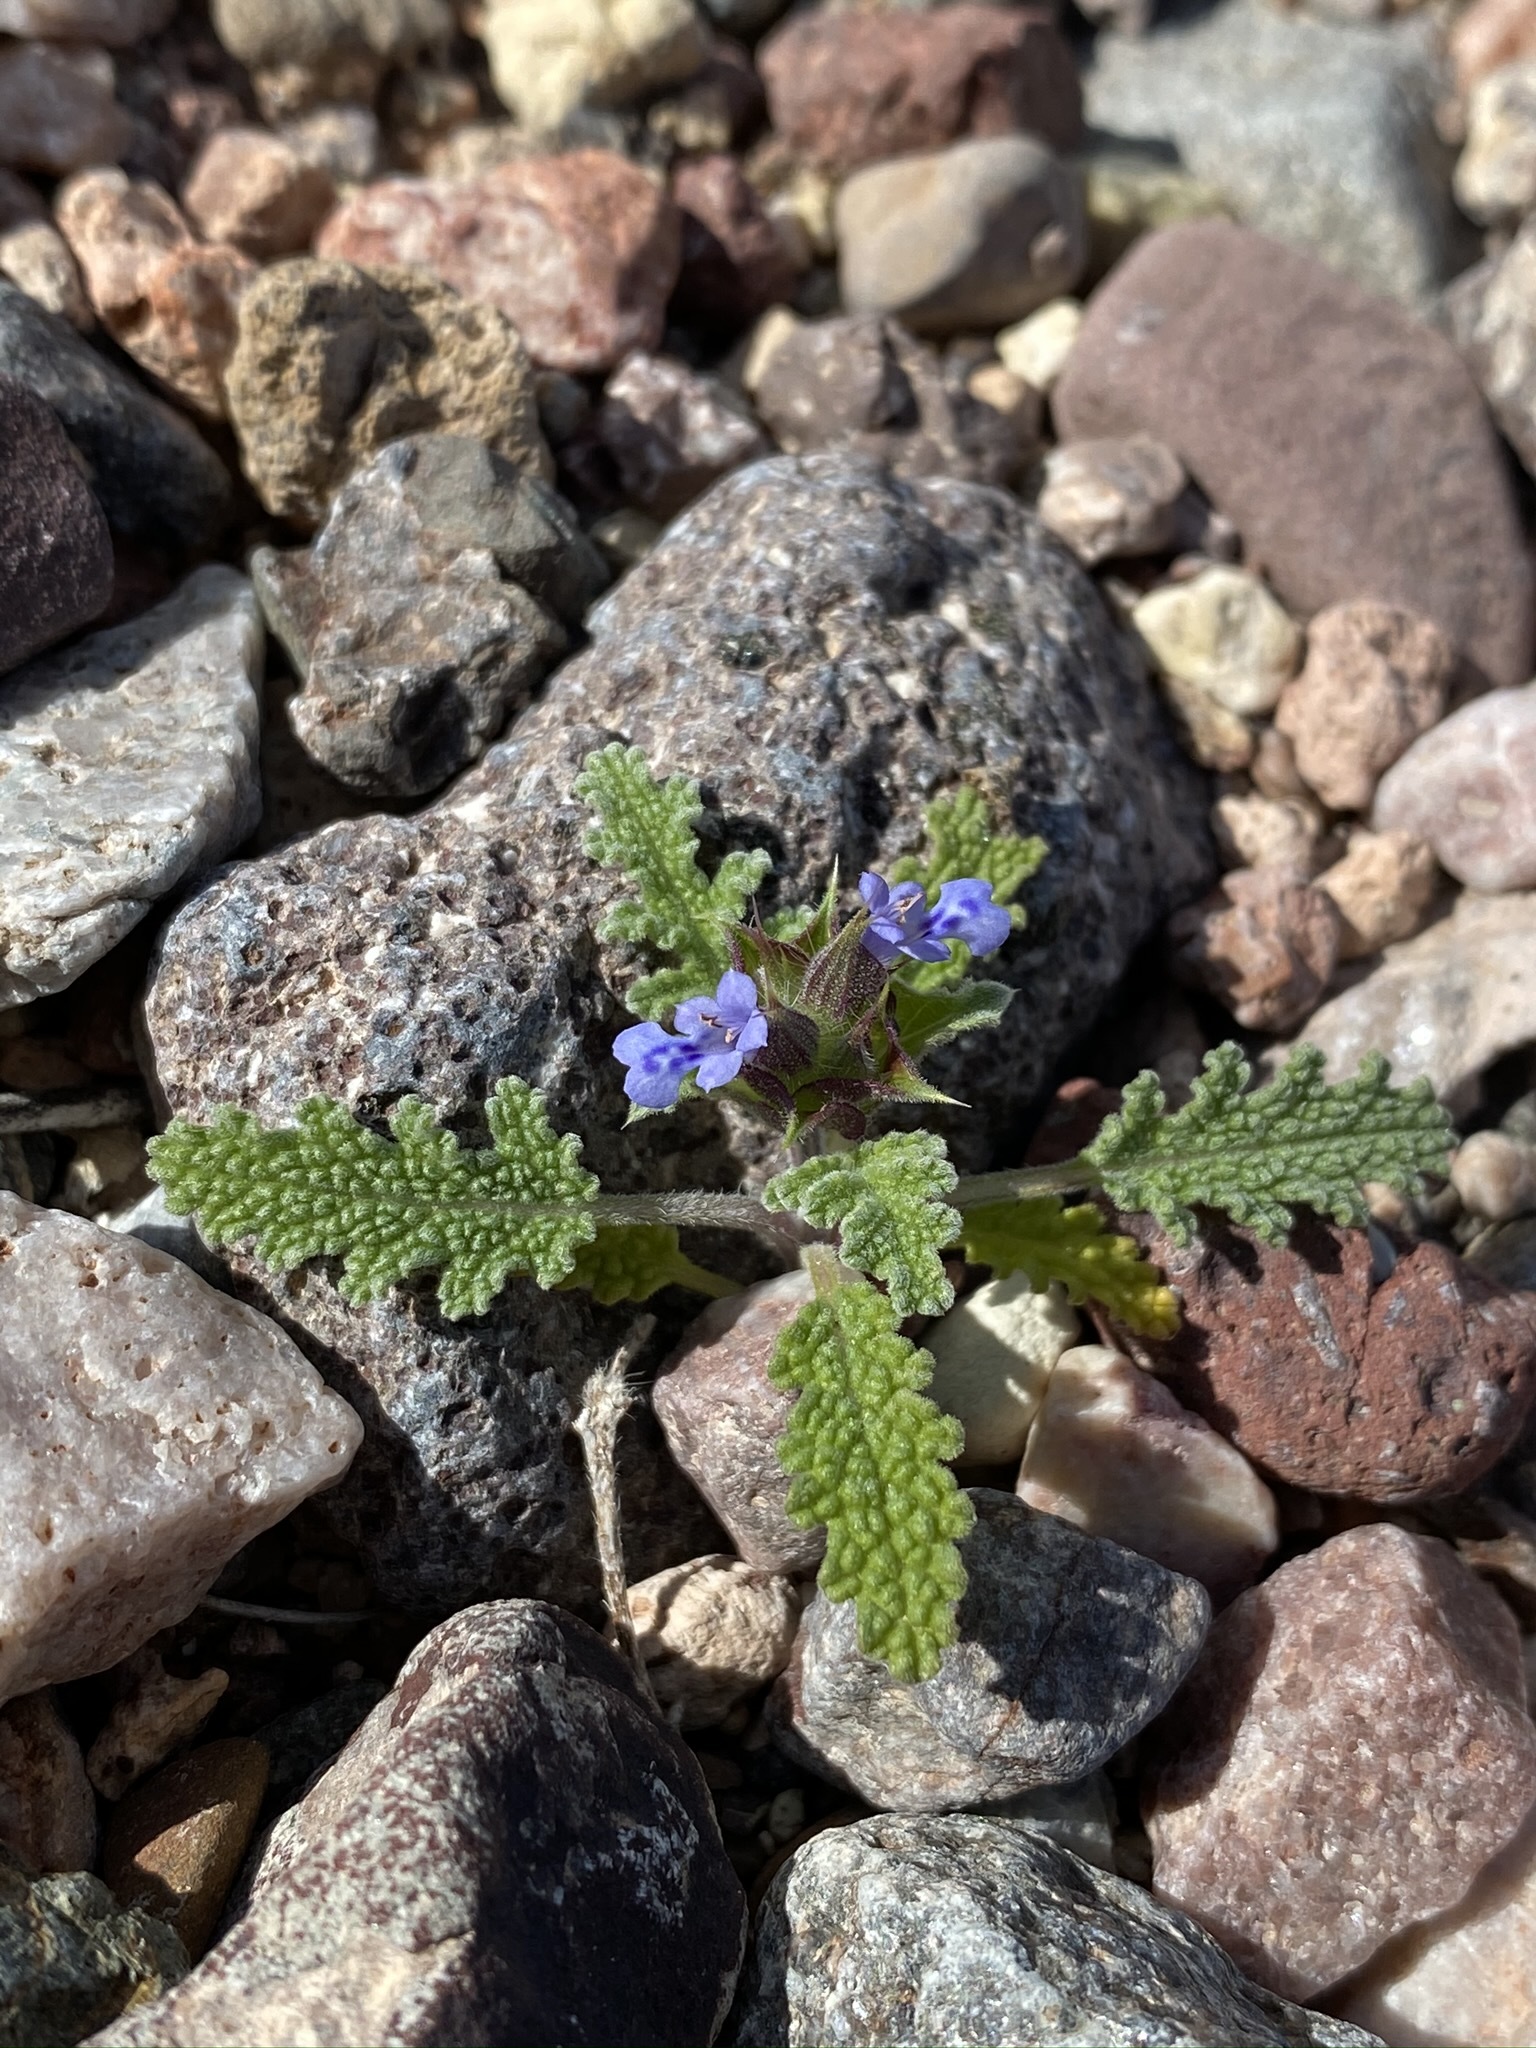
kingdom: Plantae
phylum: Tracheophyta
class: Magnoliopsida
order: Lamiales
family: Lamiaceae
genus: Salvia
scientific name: Salvia columbariae
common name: Chia
